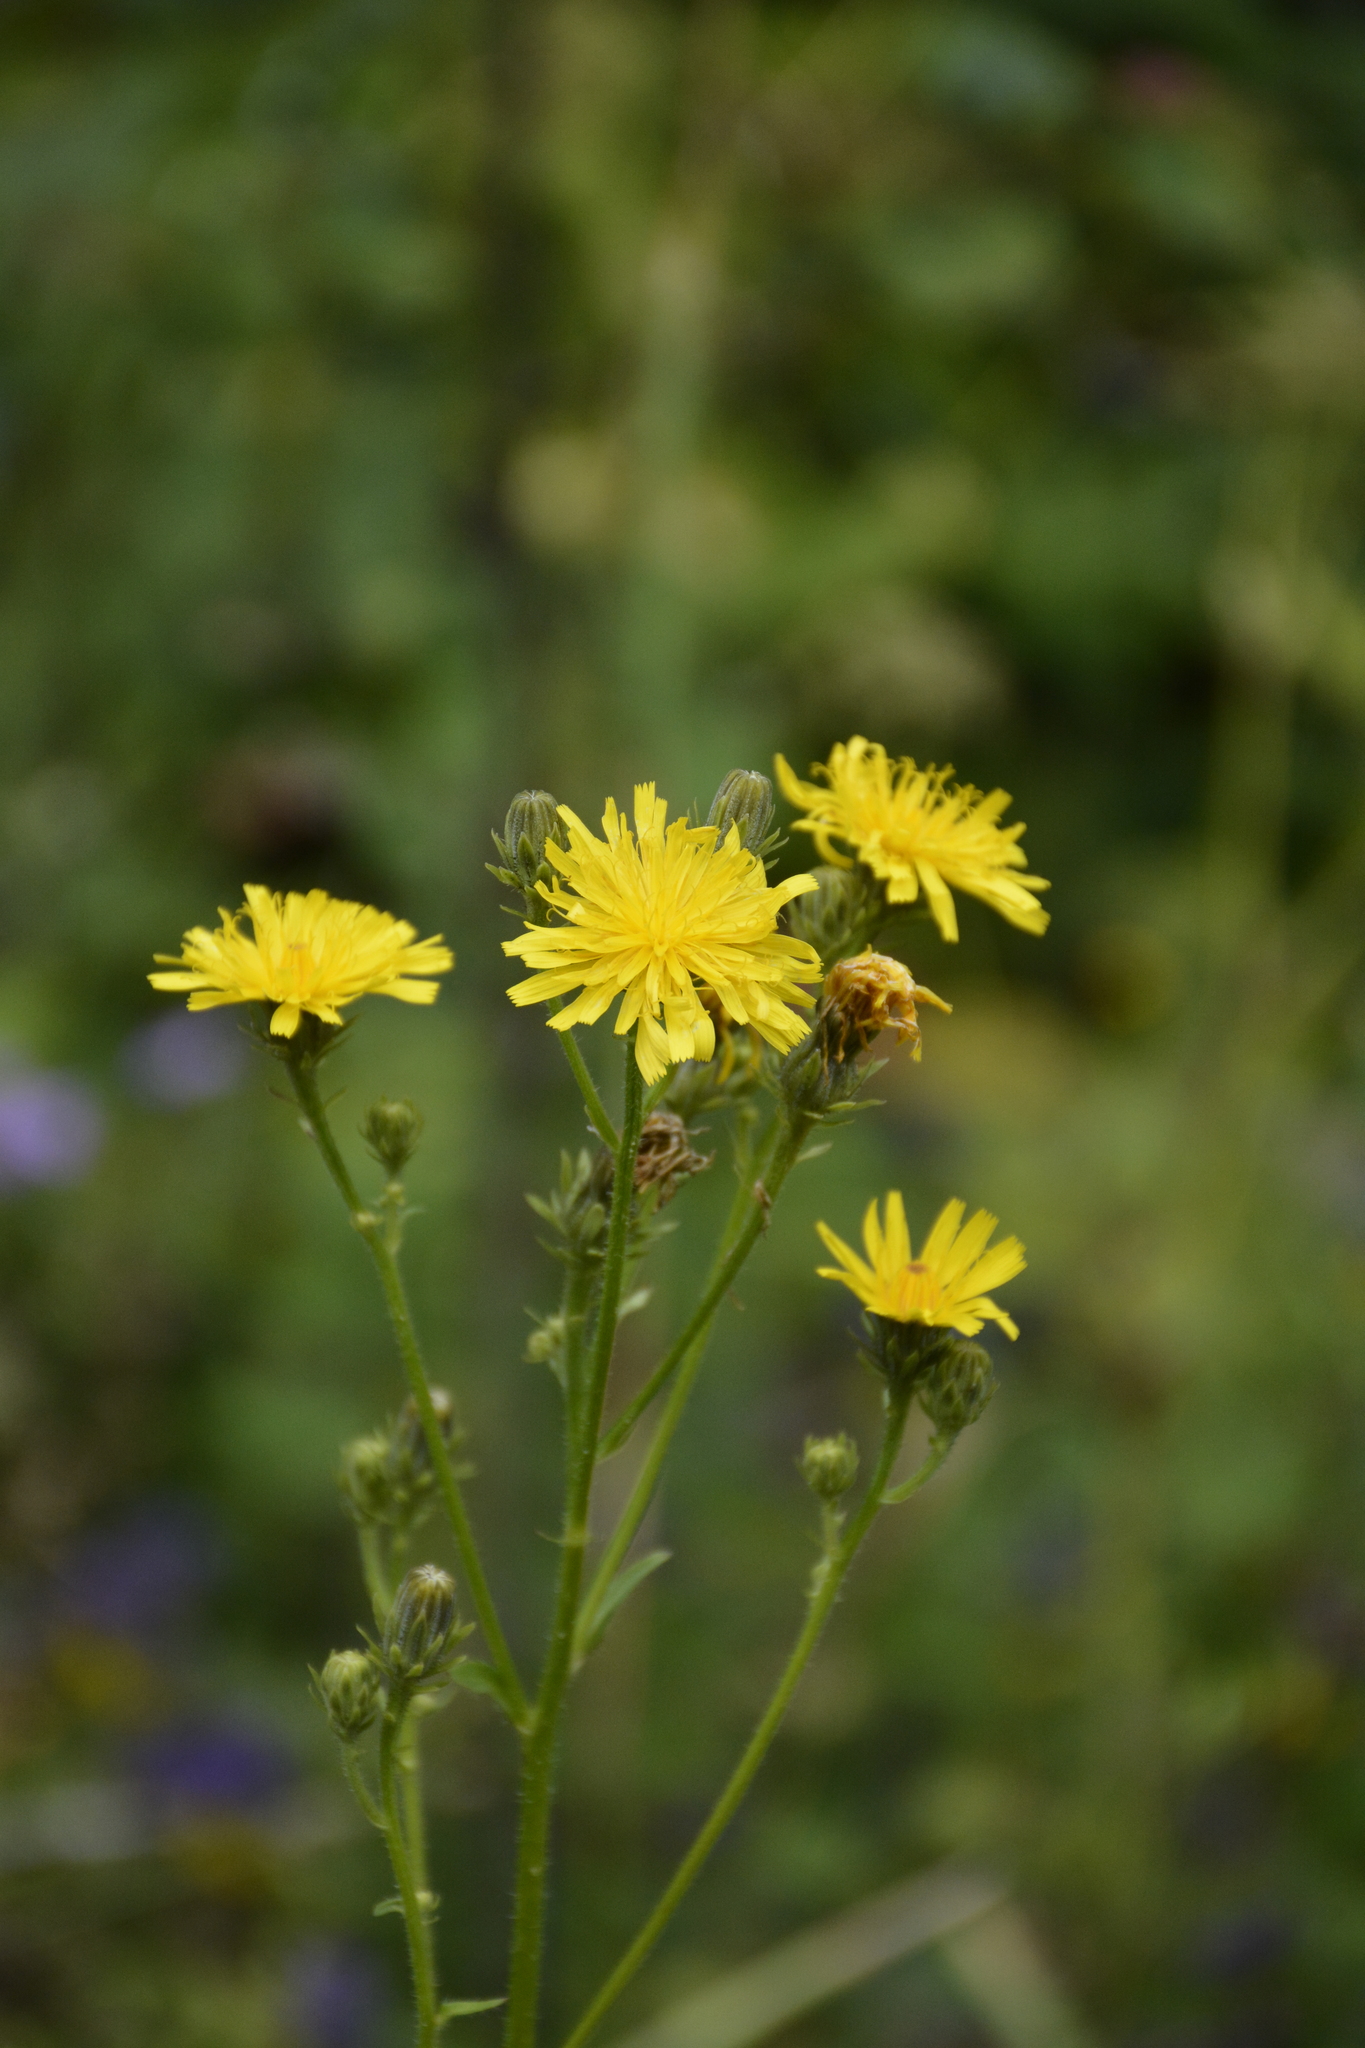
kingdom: Plantae
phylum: Tracheophyta
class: Magnoliopsida
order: Asterales
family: Asteraceae
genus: Picris
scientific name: Picris hieracioides
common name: Hawkweed oxtongue
